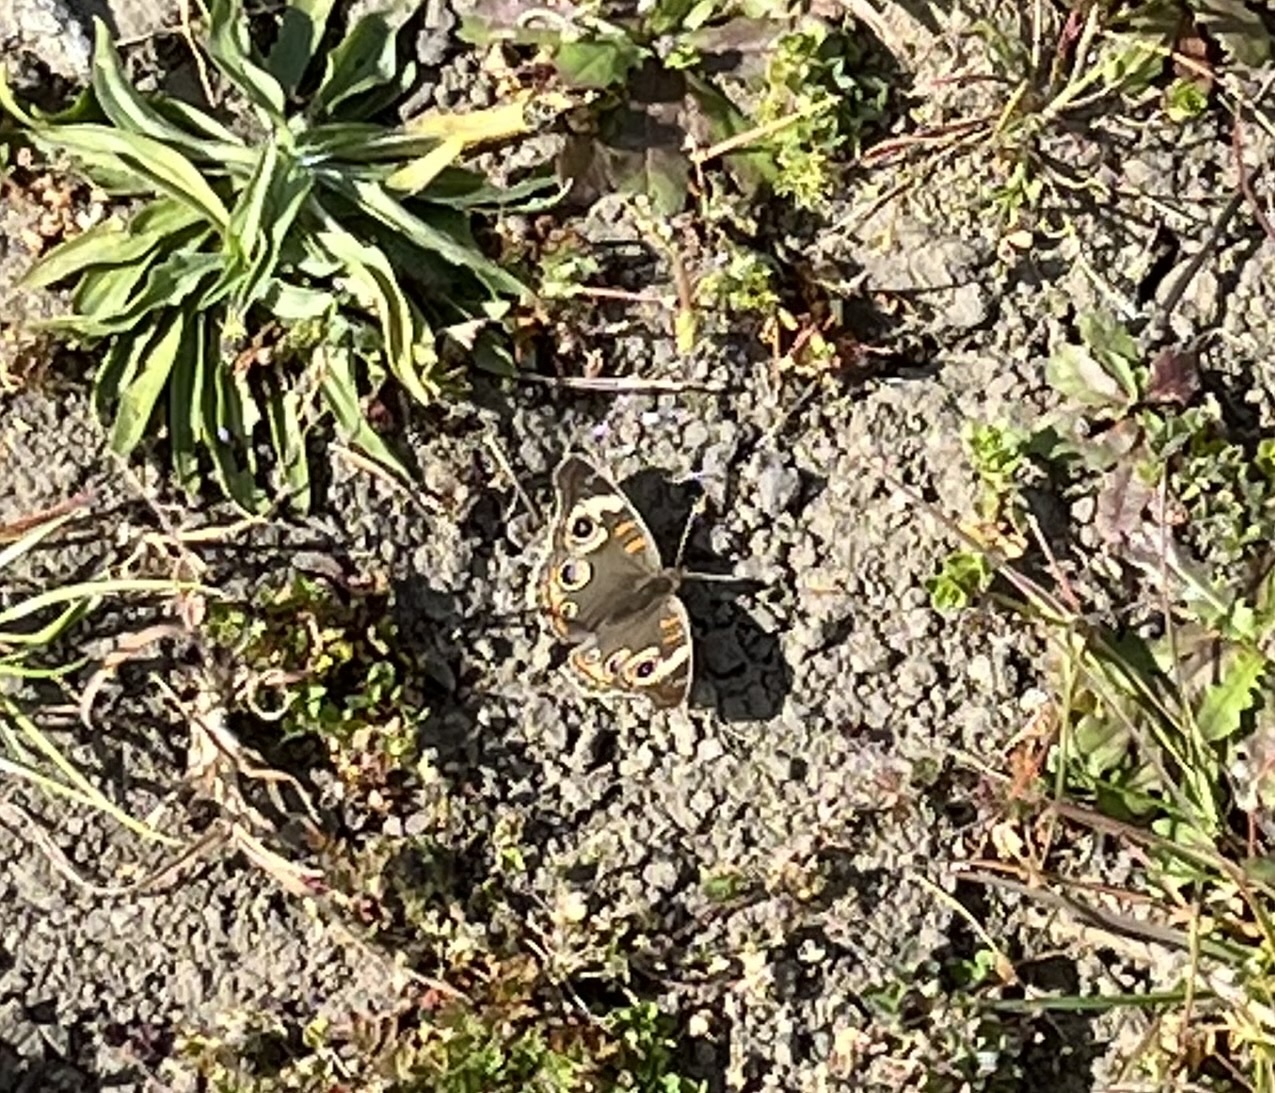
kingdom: Animalia
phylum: Arthropoda
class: Insecta
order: Lepidoptera
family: Nymphalidae
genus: Junonia
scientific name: Junonia grisea
